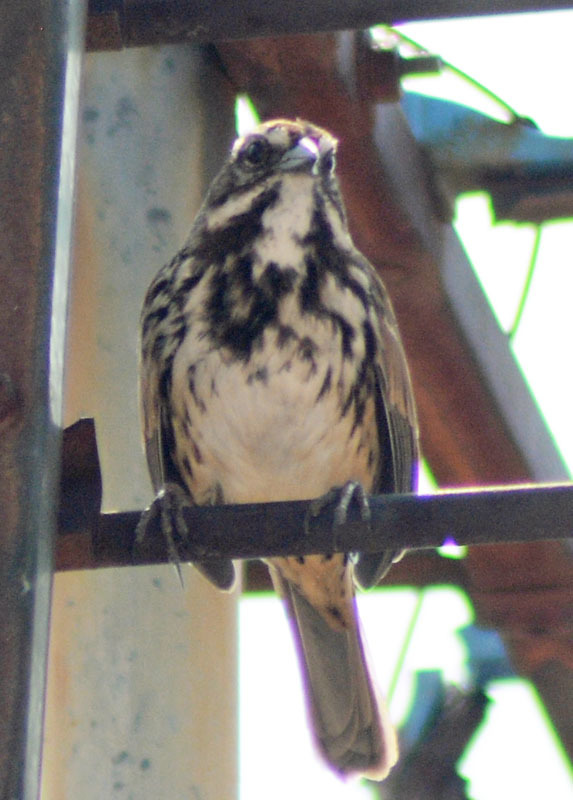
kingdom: Animalia
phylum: Chordata
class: Aves
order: Passeriformes
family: Passerellidae
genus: Melospiza
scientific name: Melospiza melodia
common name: Song sparrow
